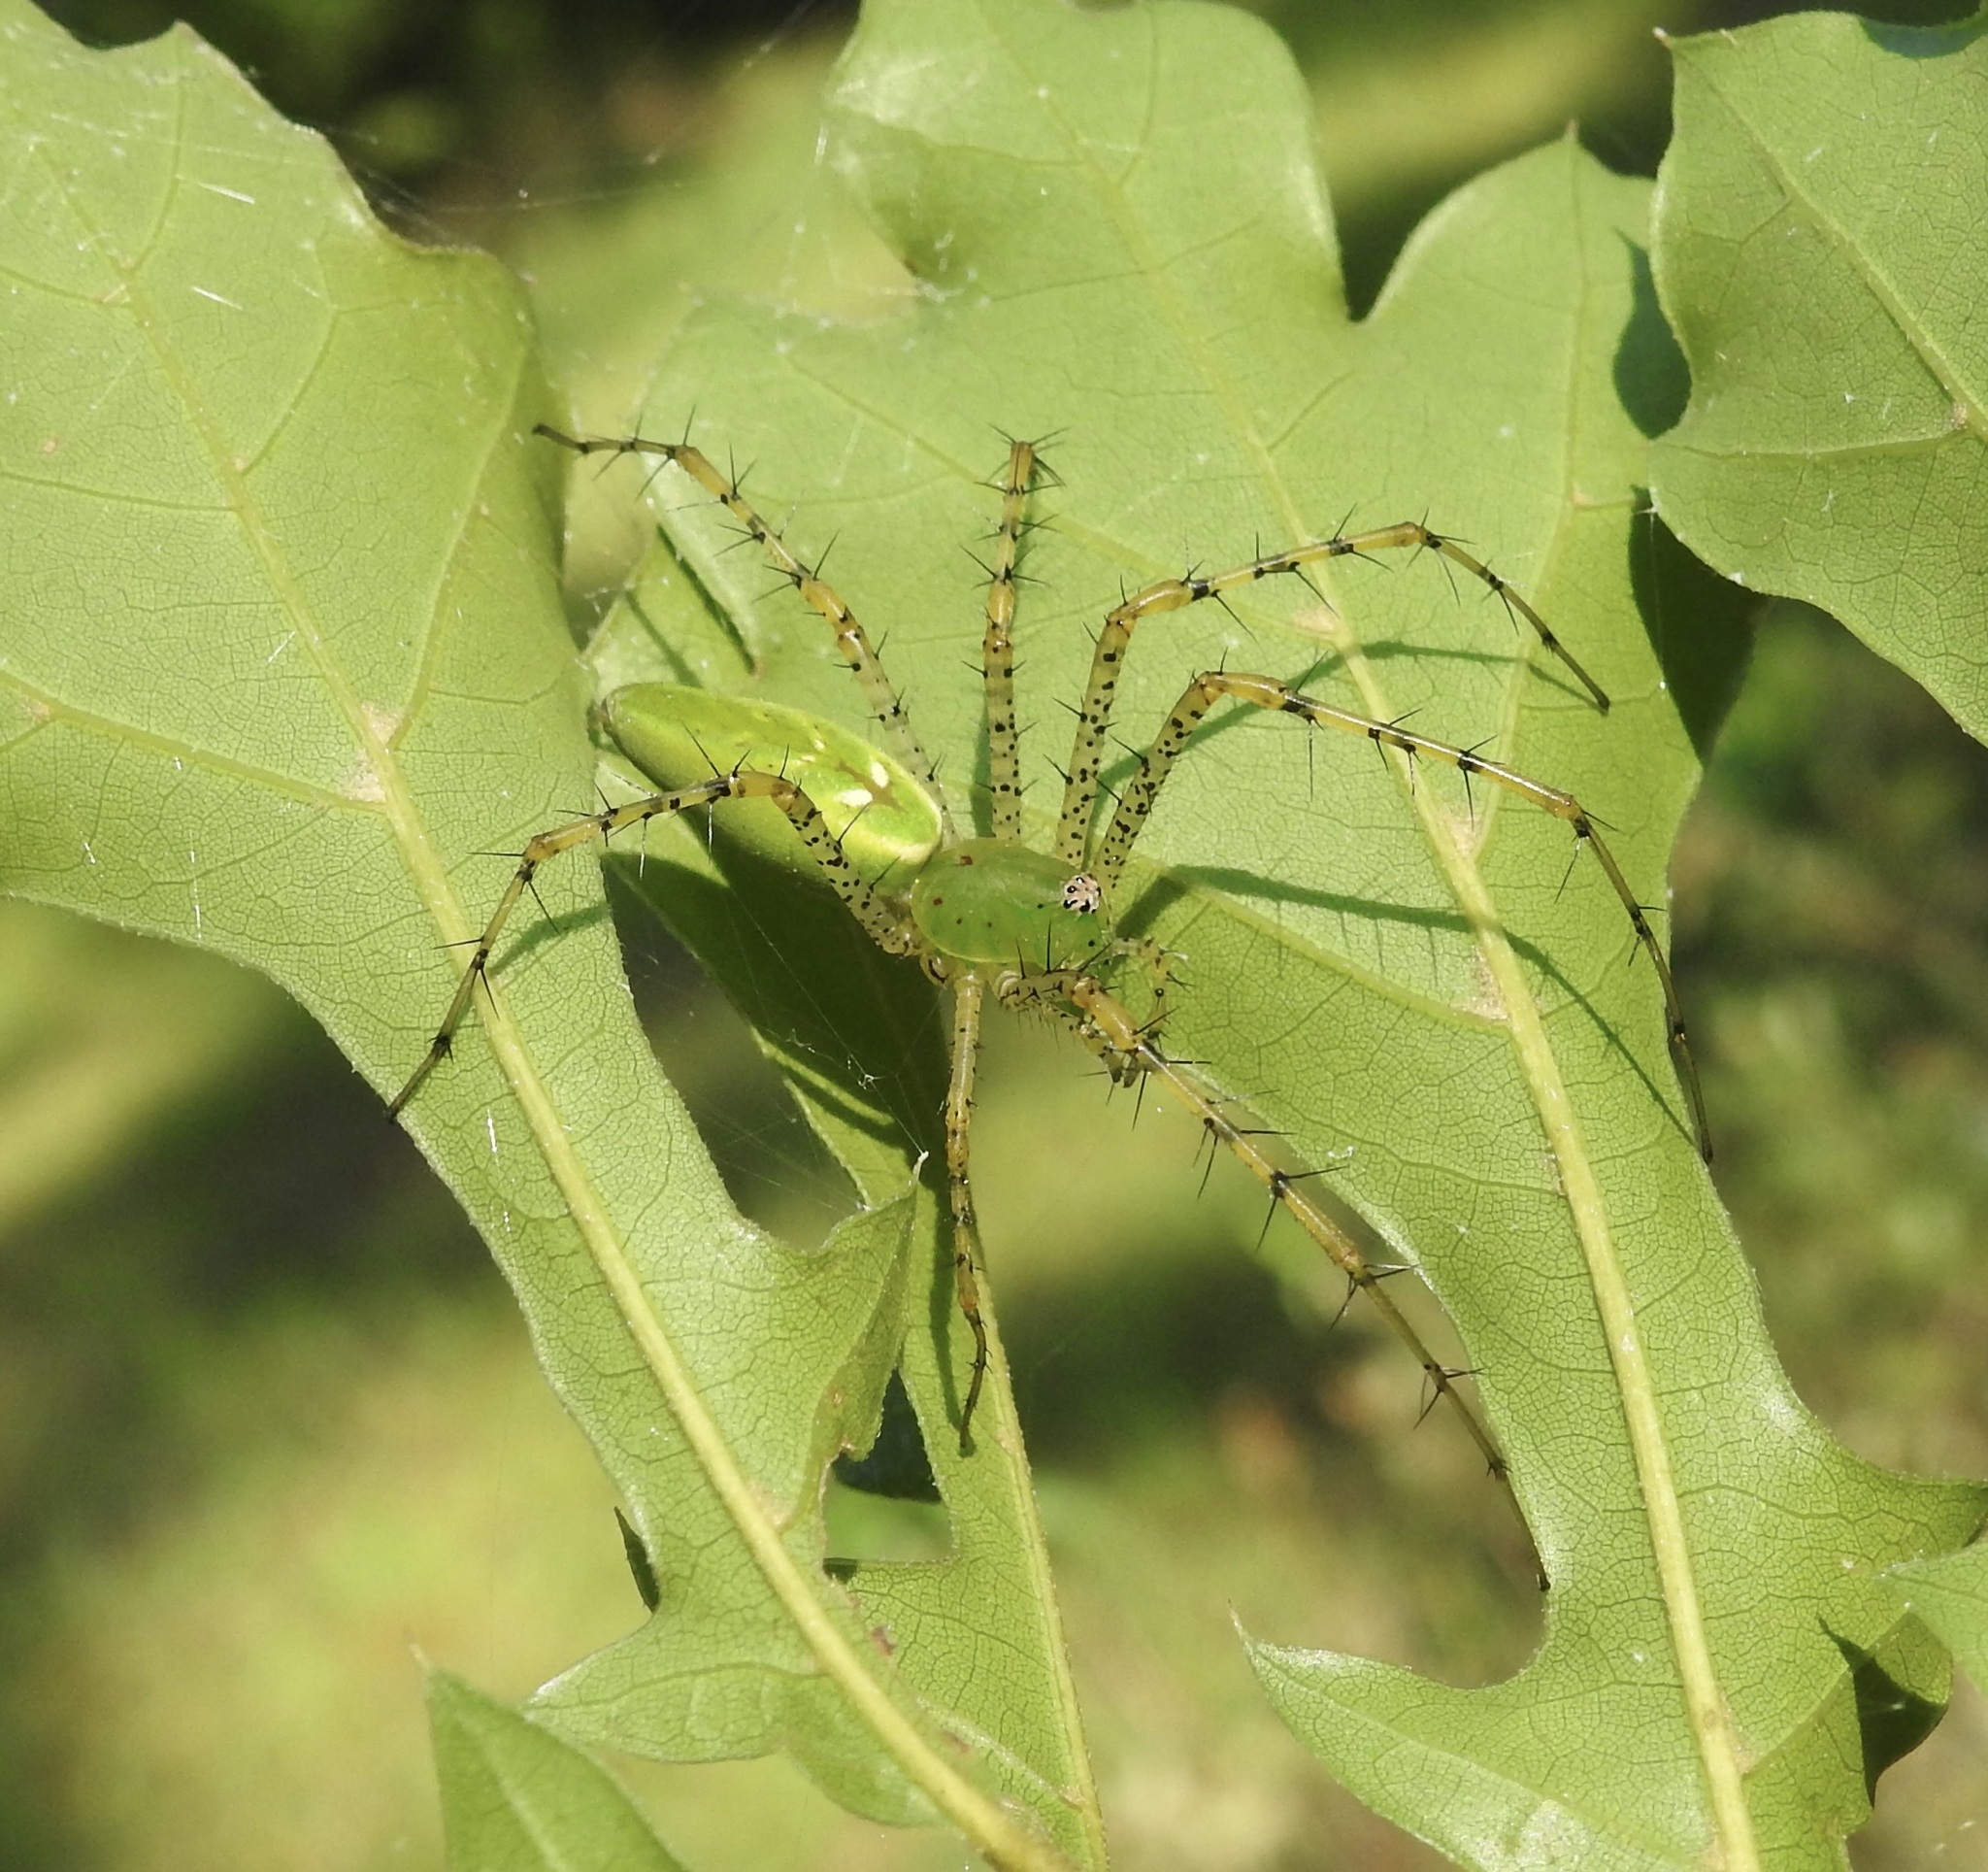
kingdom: Animalia
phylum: Arthropoda
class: Arachnida
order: Araneae
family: Oxyopidae
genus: Peucetia
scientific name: Peucetia viridans
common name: Lynx spiders
